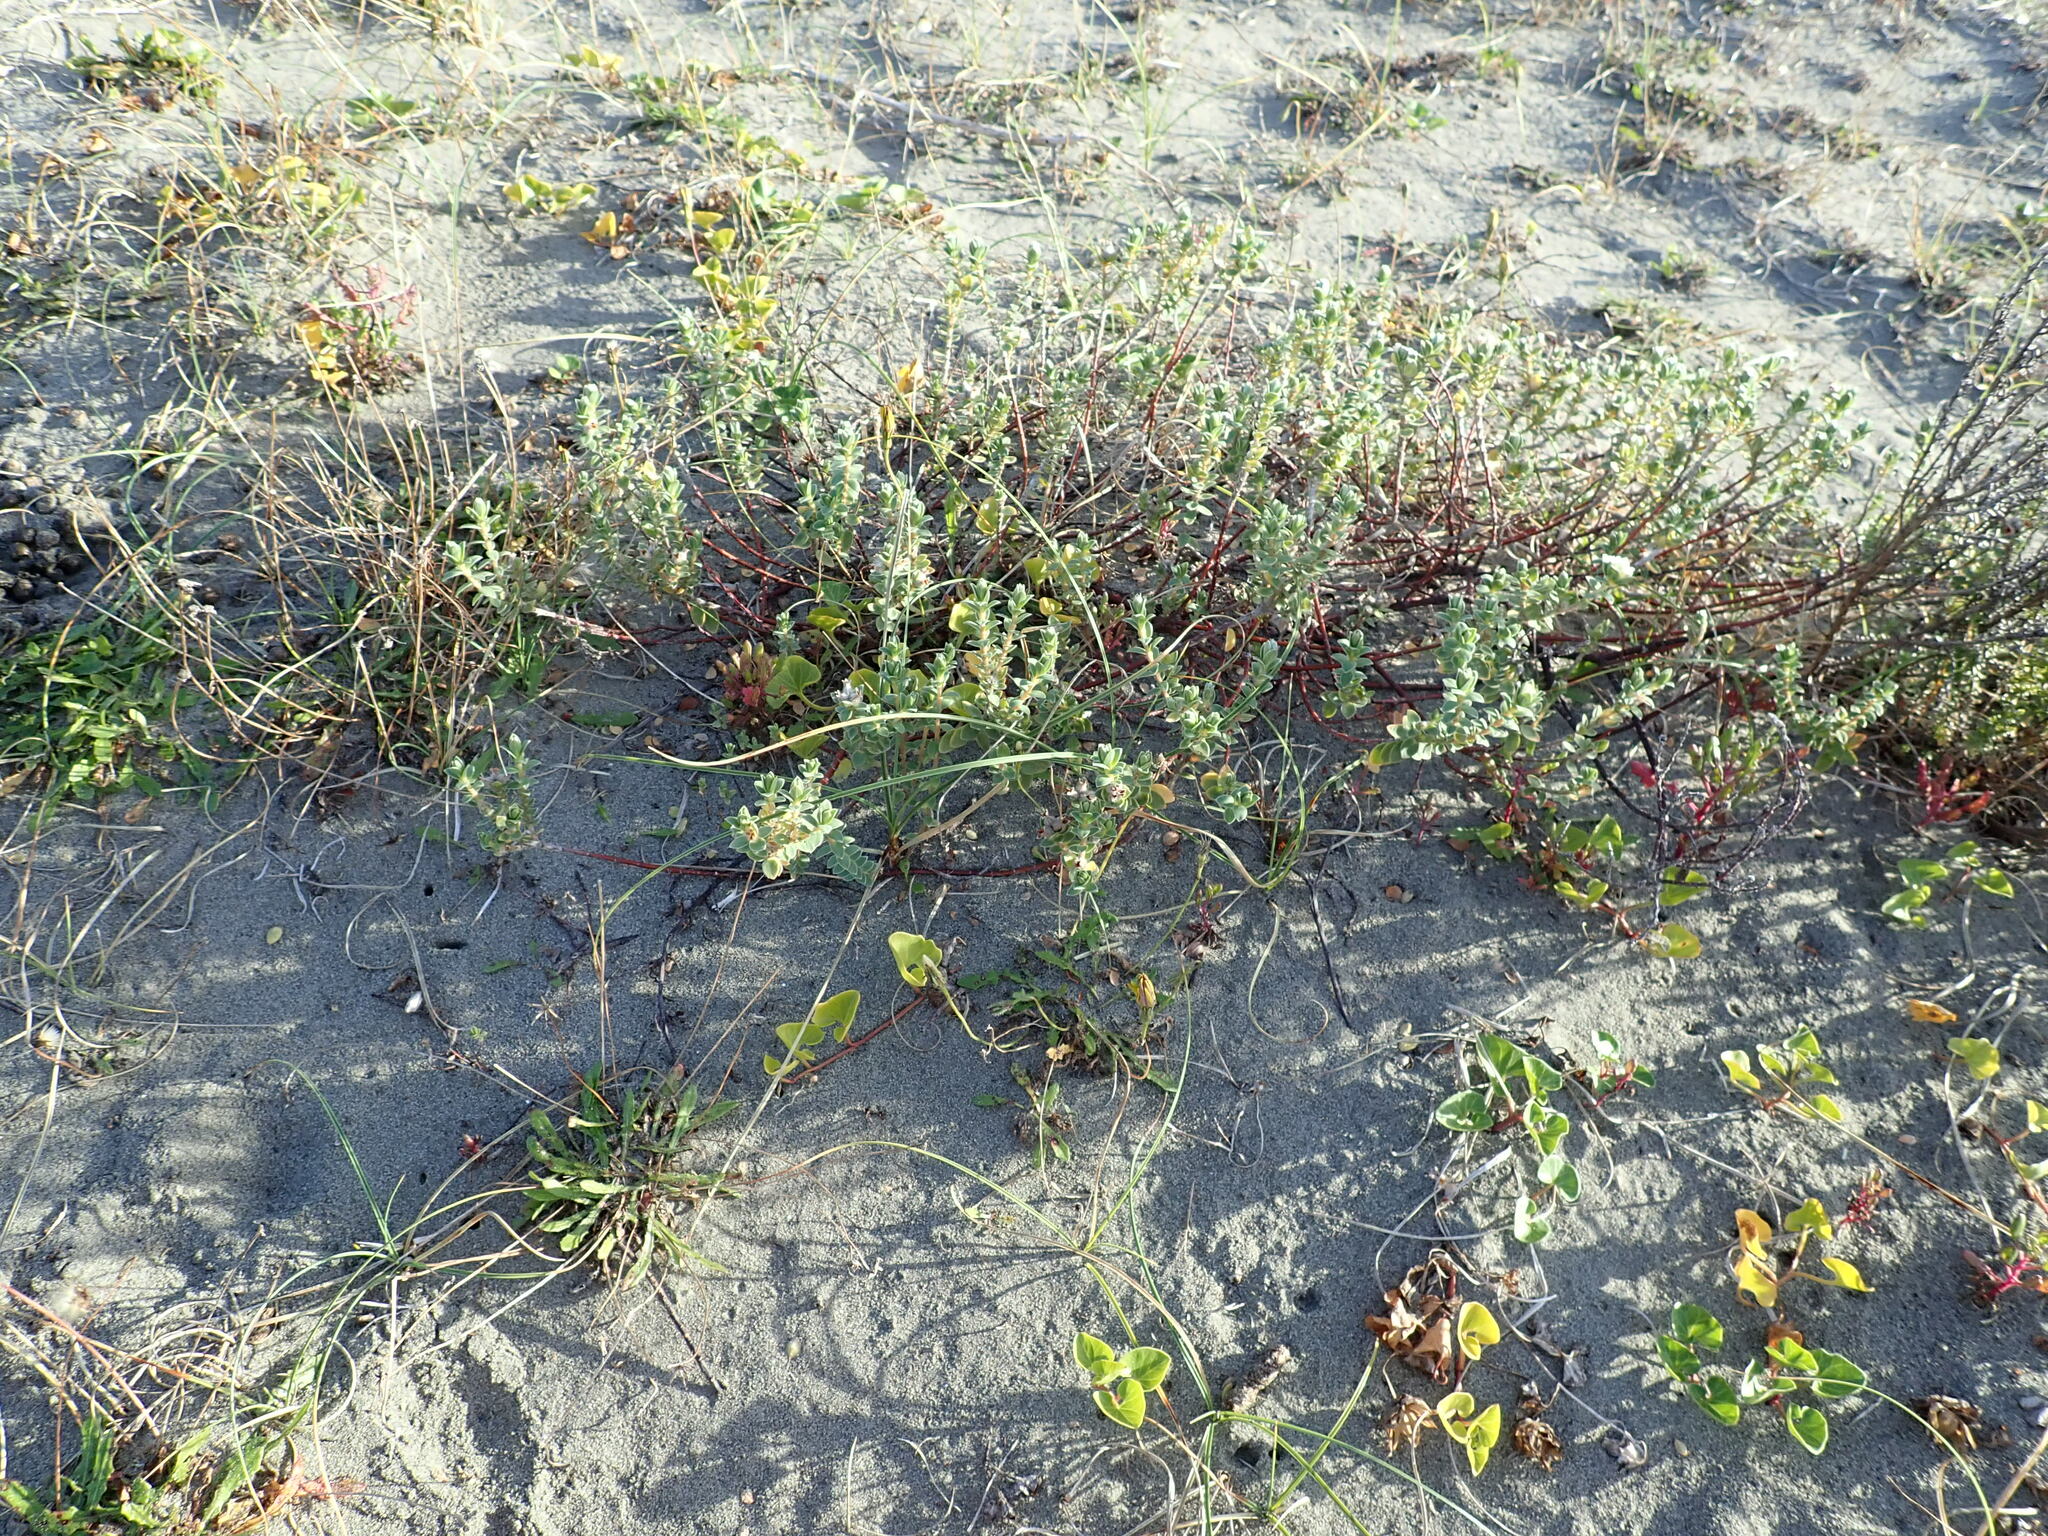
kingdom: Plantae
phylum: Tracheophyta
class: Magnoliopsida
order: Malvales
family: Thymelaeaceae
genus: Pimelea
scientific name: Pimelea villosa
